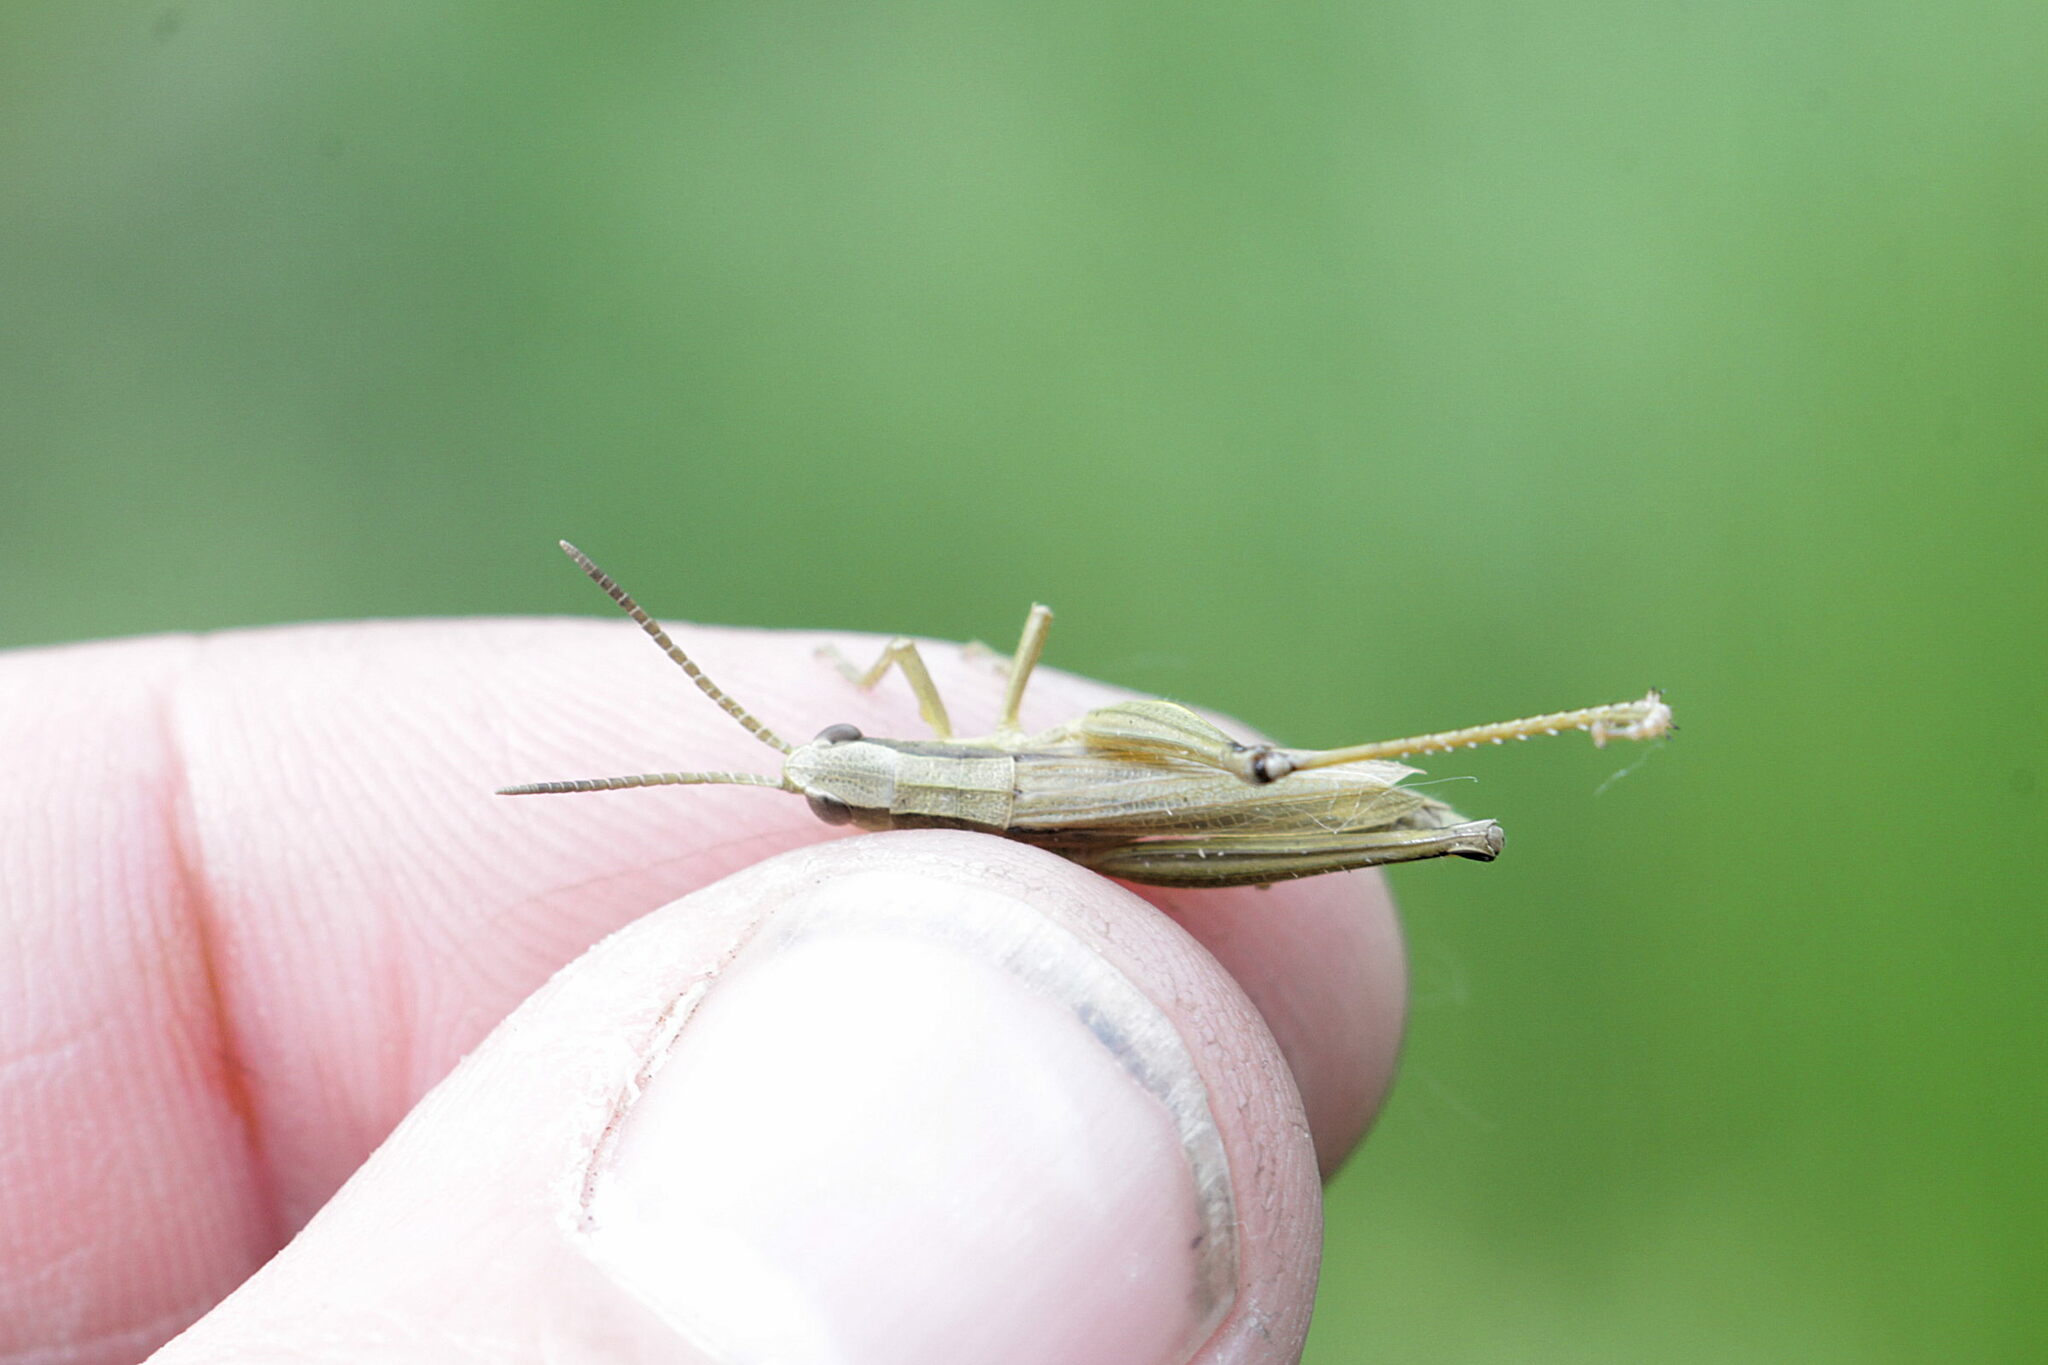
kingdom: Animalia
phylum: Arthropoda
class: Insecta
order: Orthoptera
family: Acrididae
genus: Chrysochraon
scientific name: Chrysochraon dispar
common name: Large gold grasshopper
